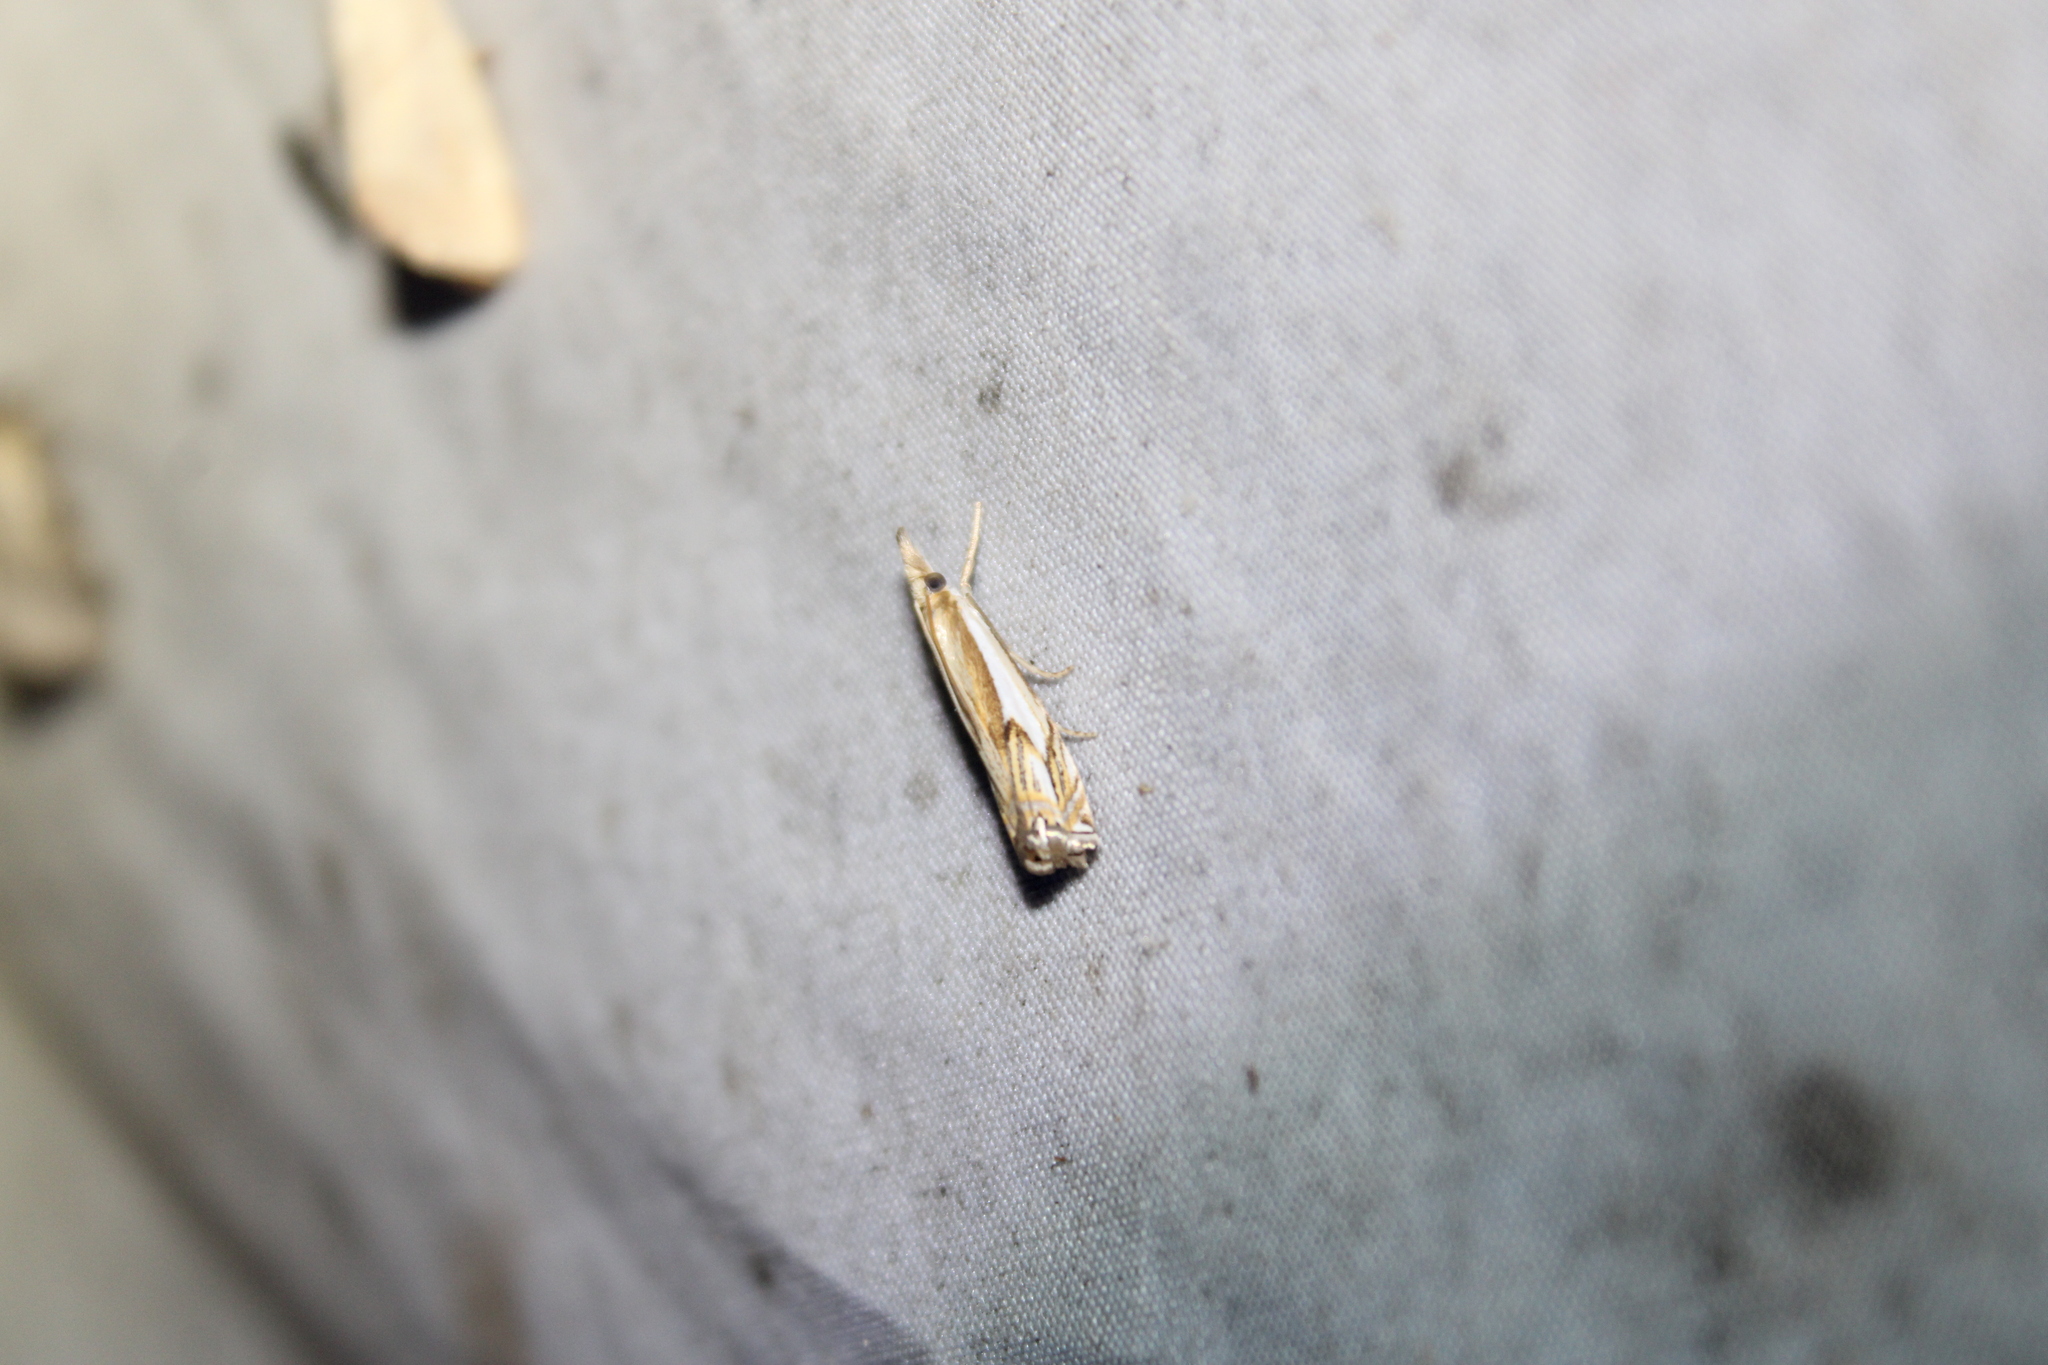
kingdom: Animalia
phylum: Arthropoda
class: Insecta
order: Lepidoptera
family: Crambidae
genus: Crambus
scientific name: Crambus agitatellus
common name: Double-banded grass-veneer
